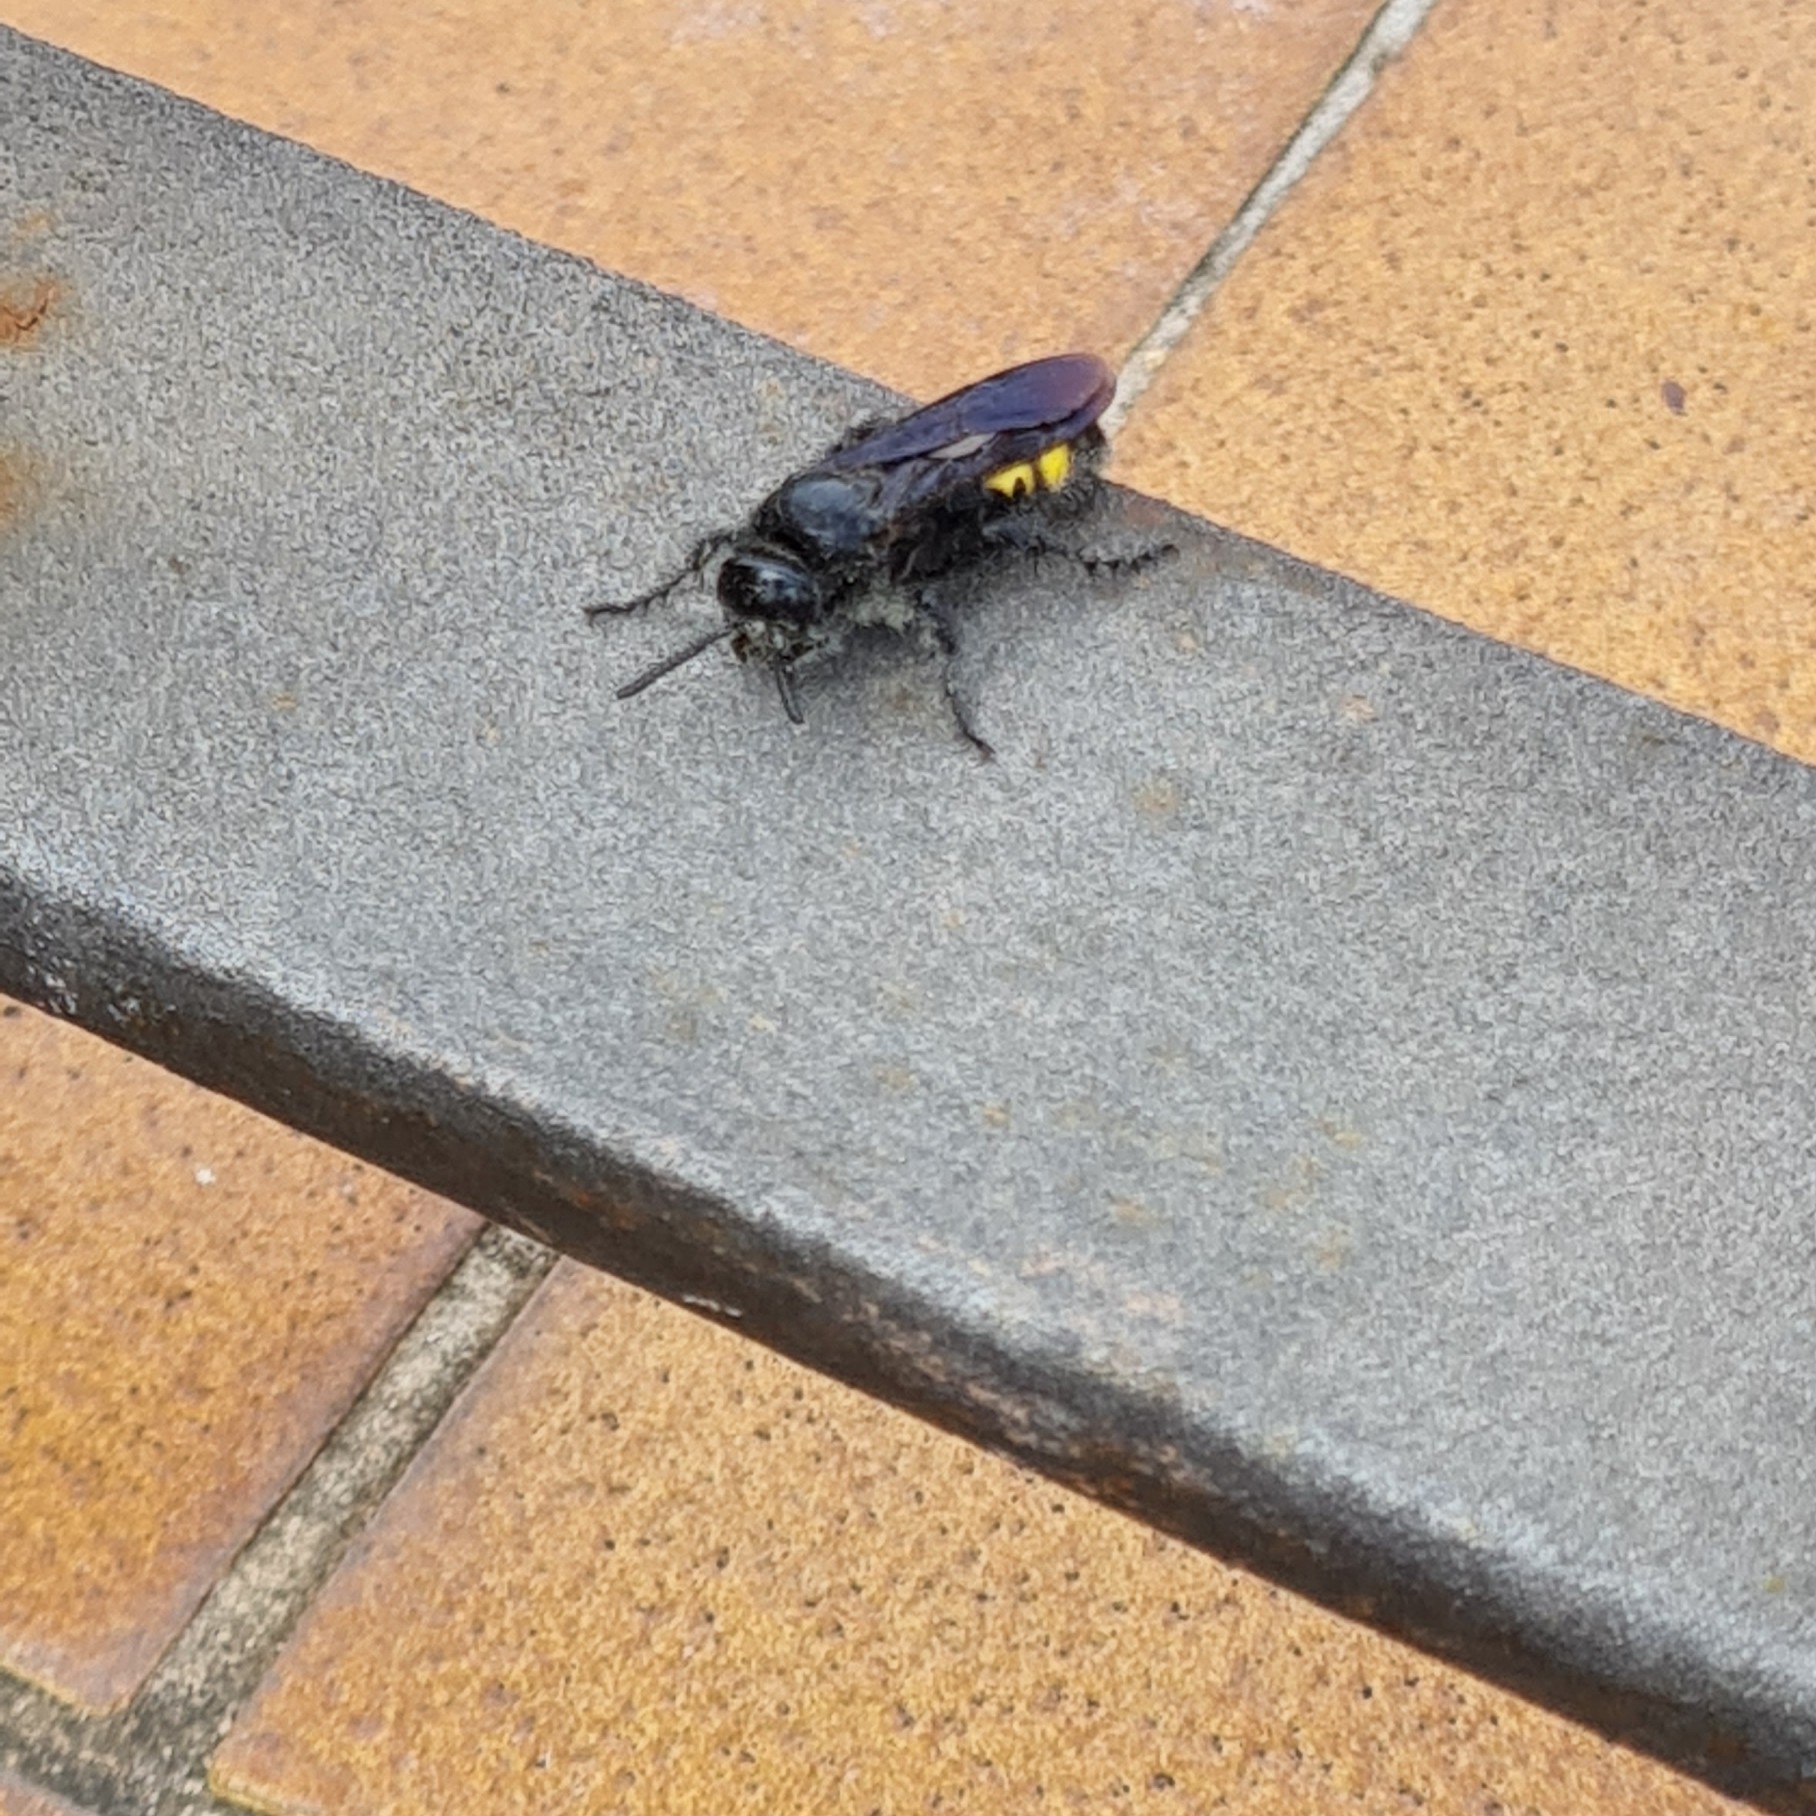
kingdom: Animalia
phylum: Arthropoda
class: Insecta
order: Hymenoptera
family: Scoliidae
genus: Scolia
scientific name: Scolia hirta
